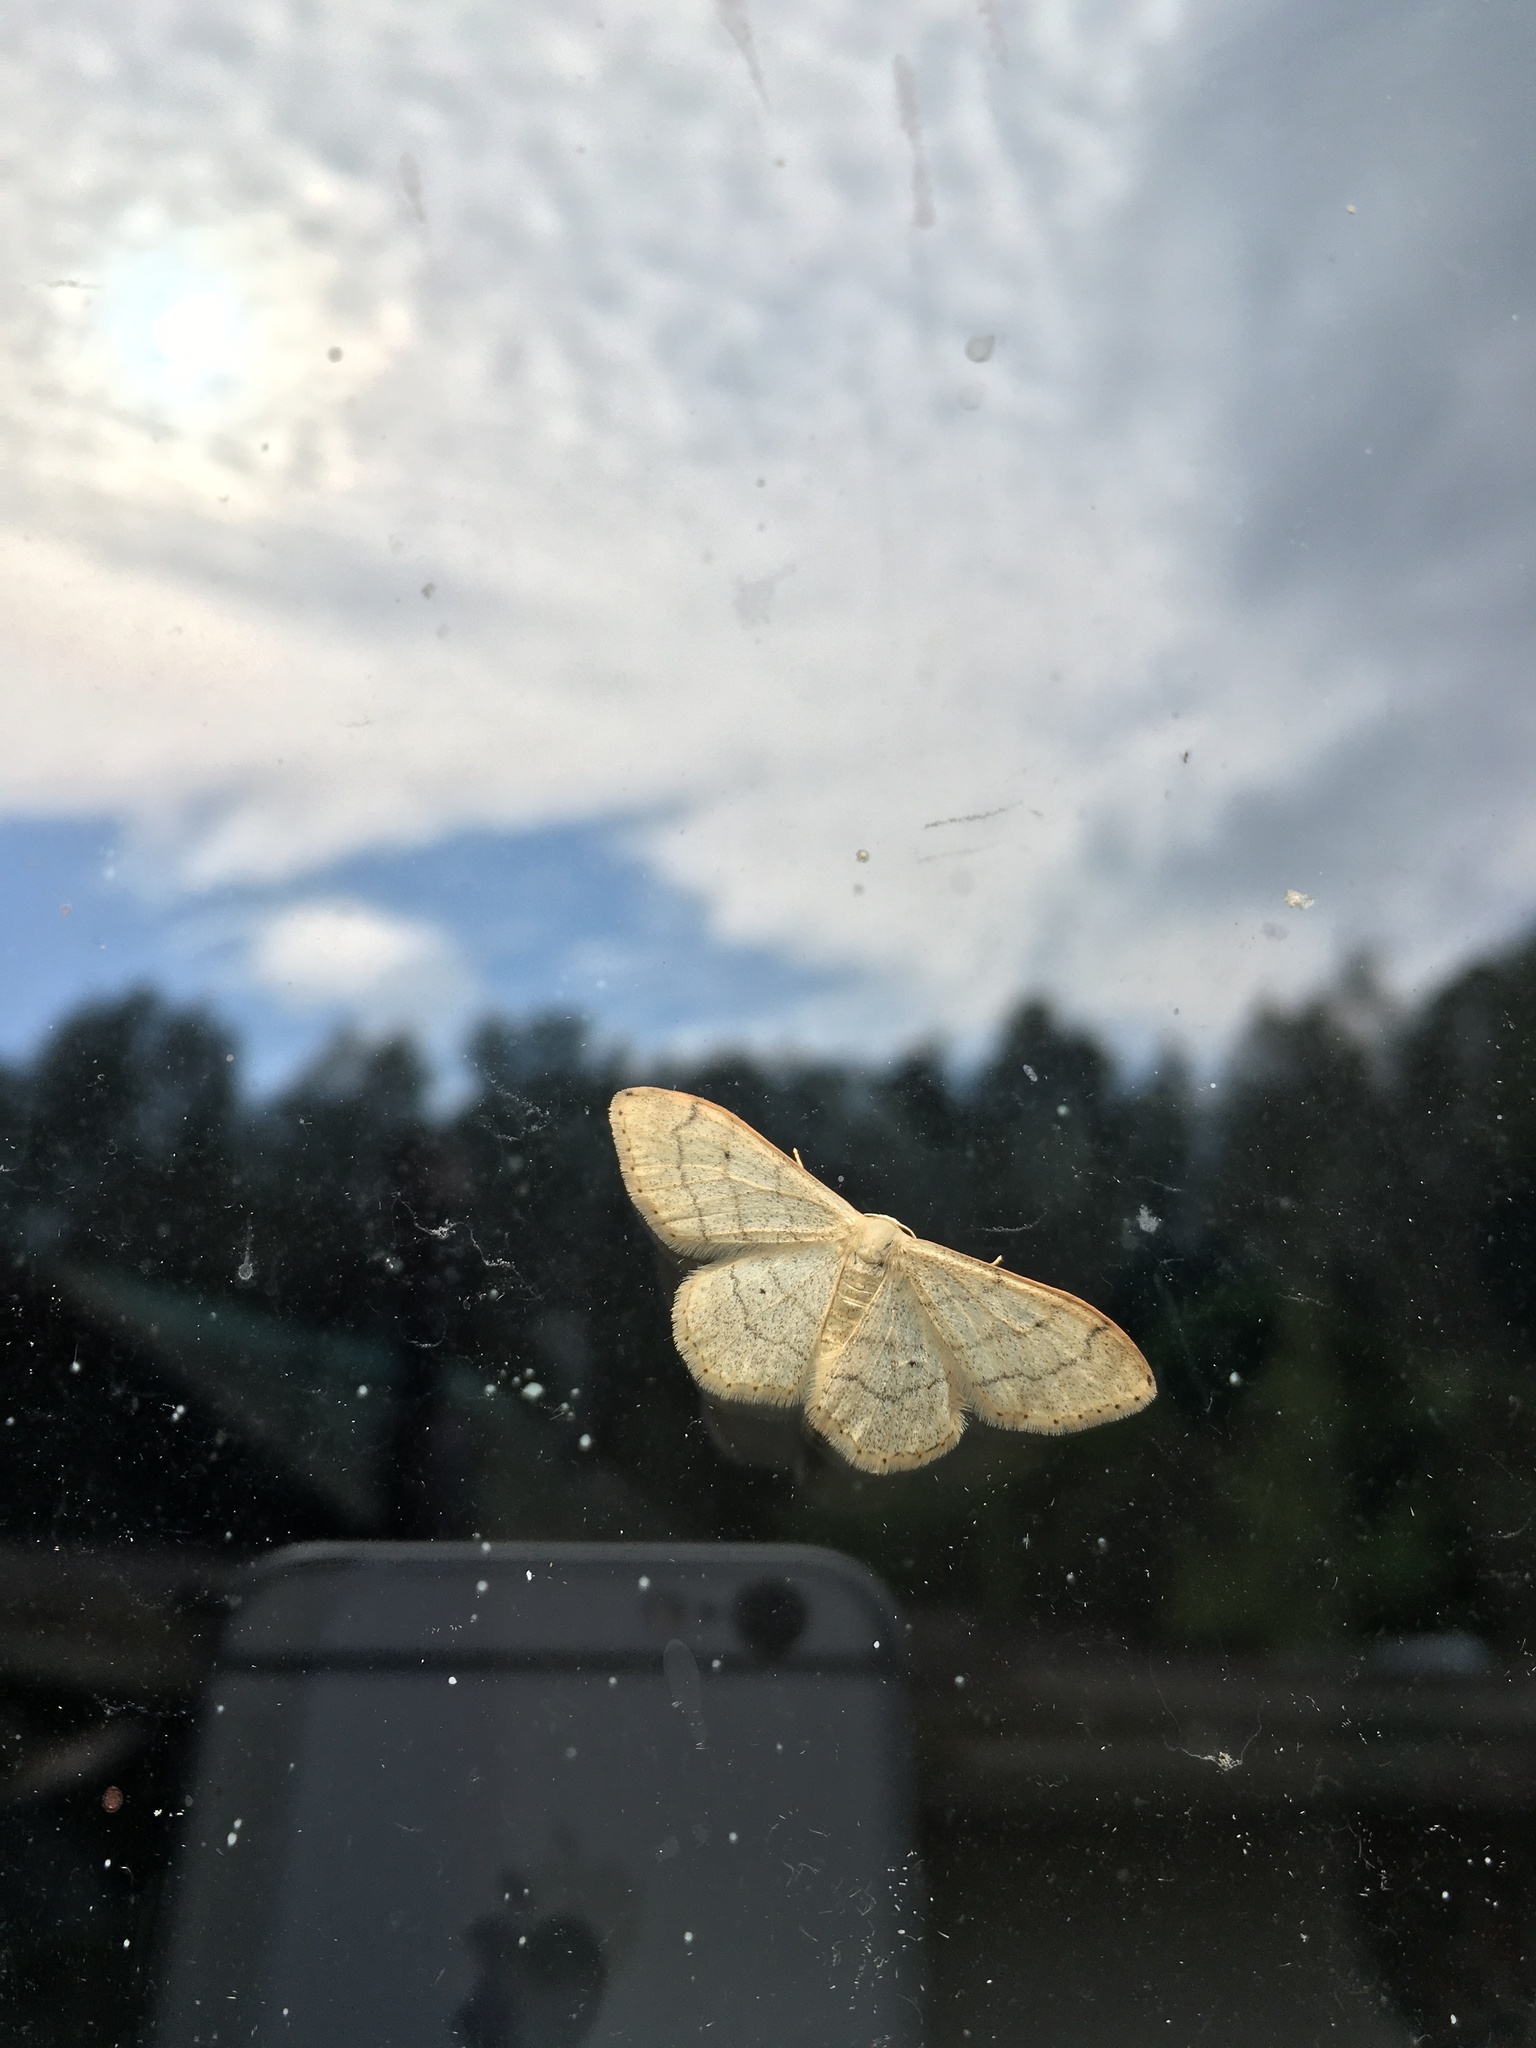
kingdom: Animalia
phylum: Arthropoda
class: Insecta
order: Lepidoptera
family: Geometridae
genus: Idaea
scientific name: Idaea aversata
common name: Riband wave
